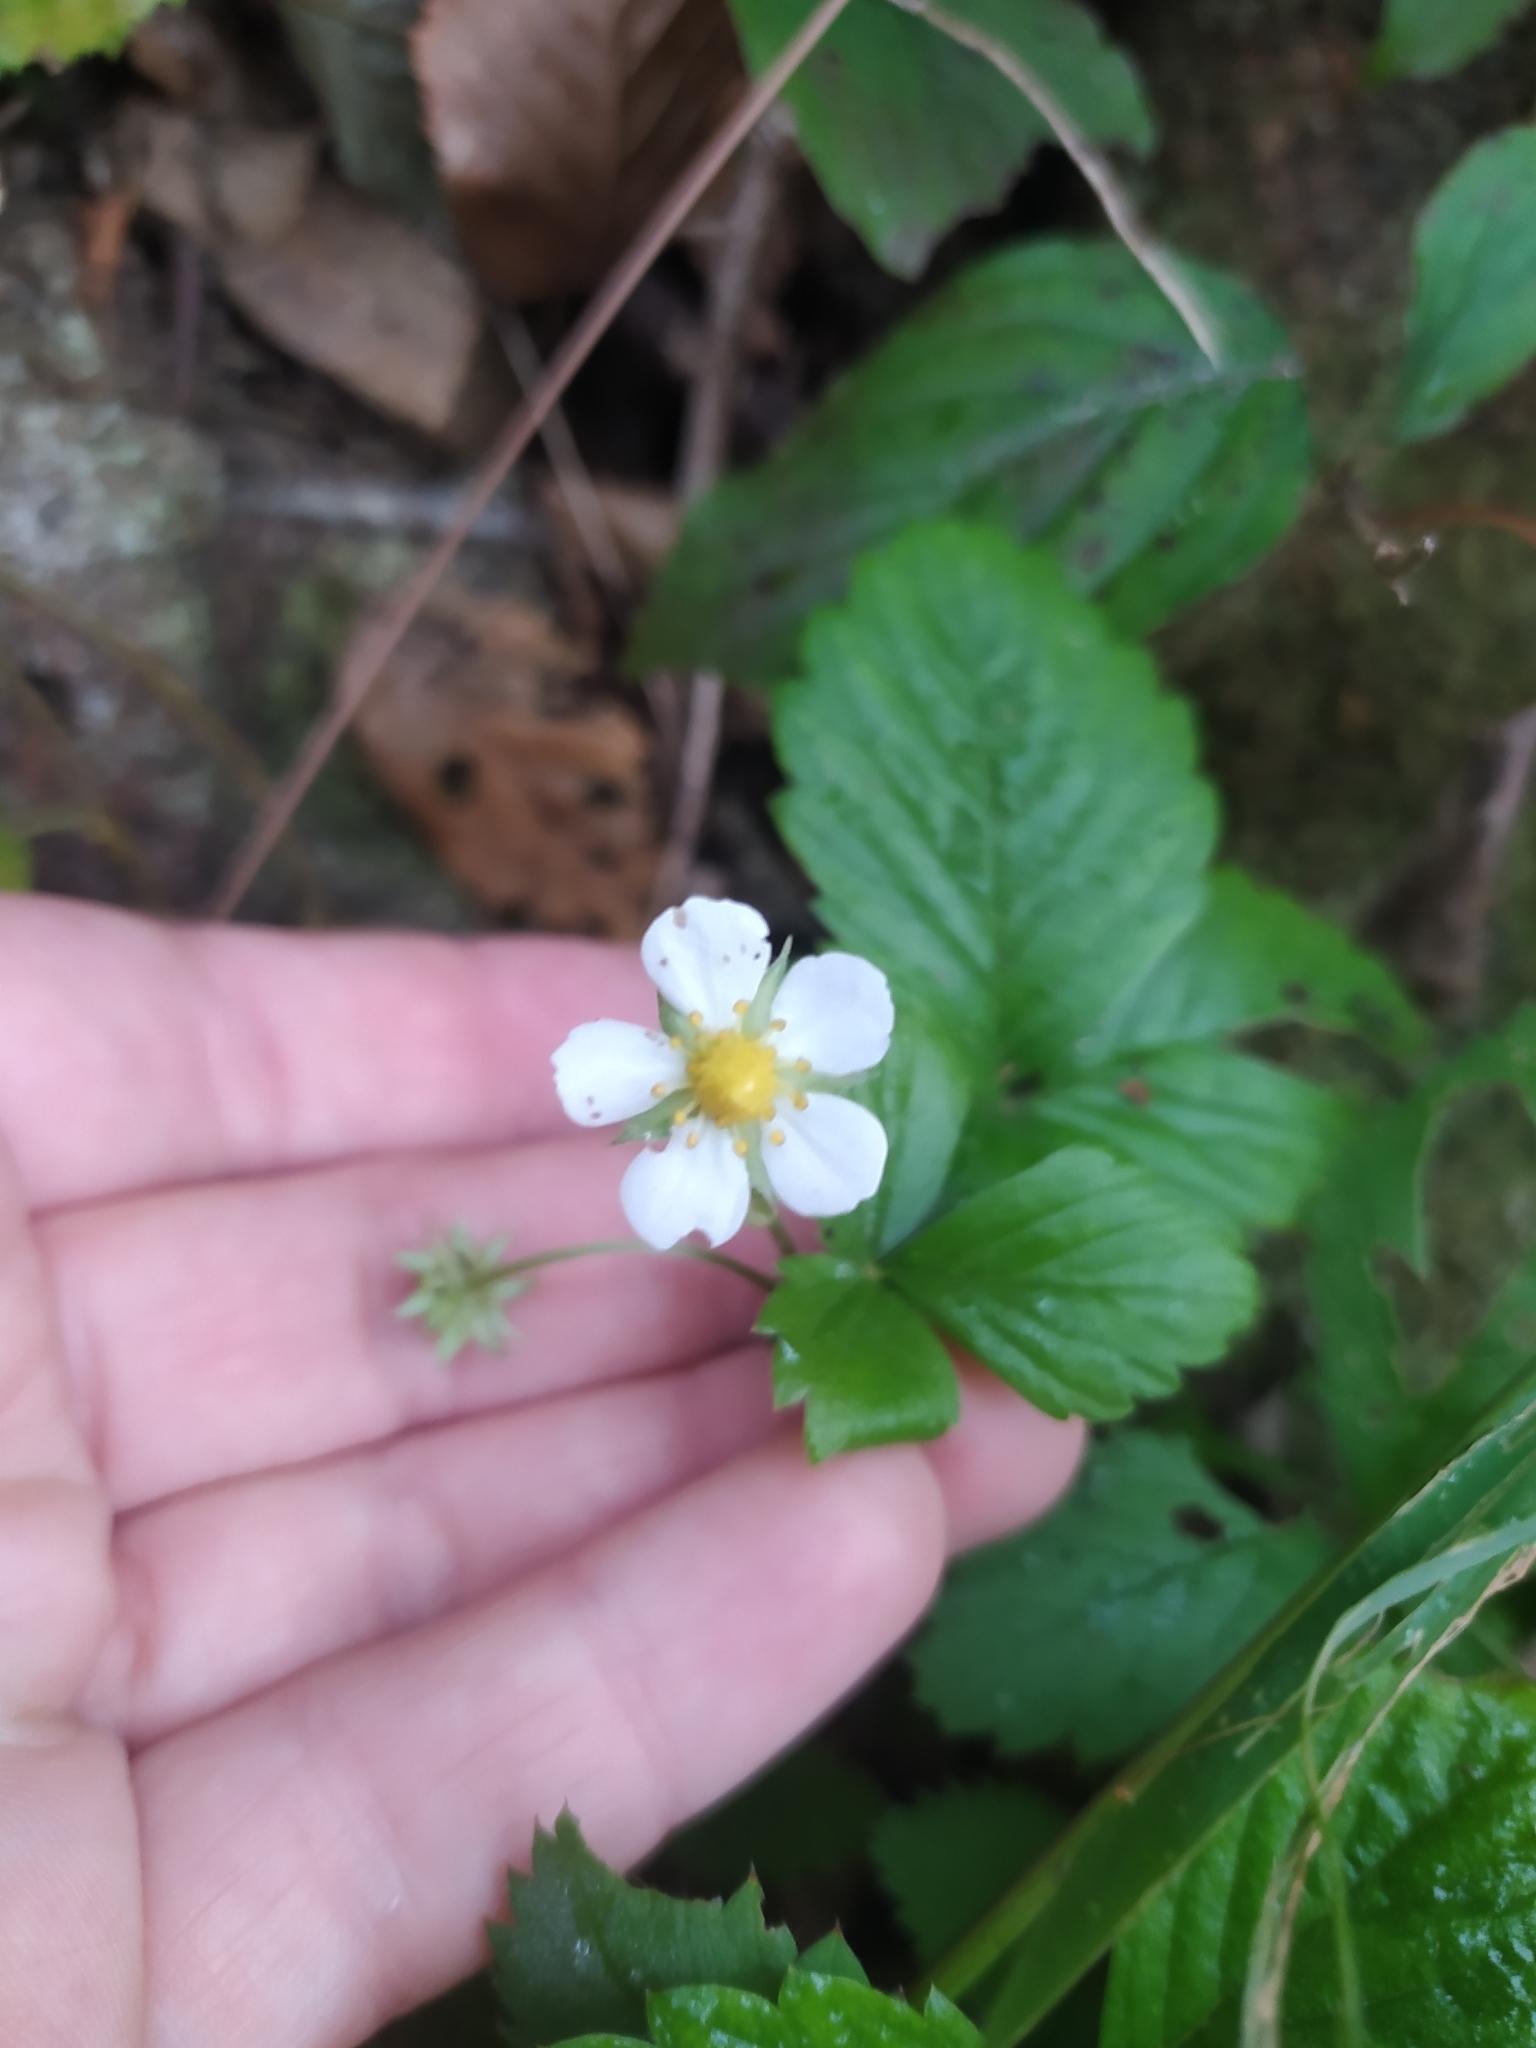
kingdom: Plantae
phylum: Tracheophyta
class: Magnoliopsida
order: Rosales
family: Rosaceae
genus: Fragaria
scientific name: Fragaria vesca
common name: Wild strawberry
